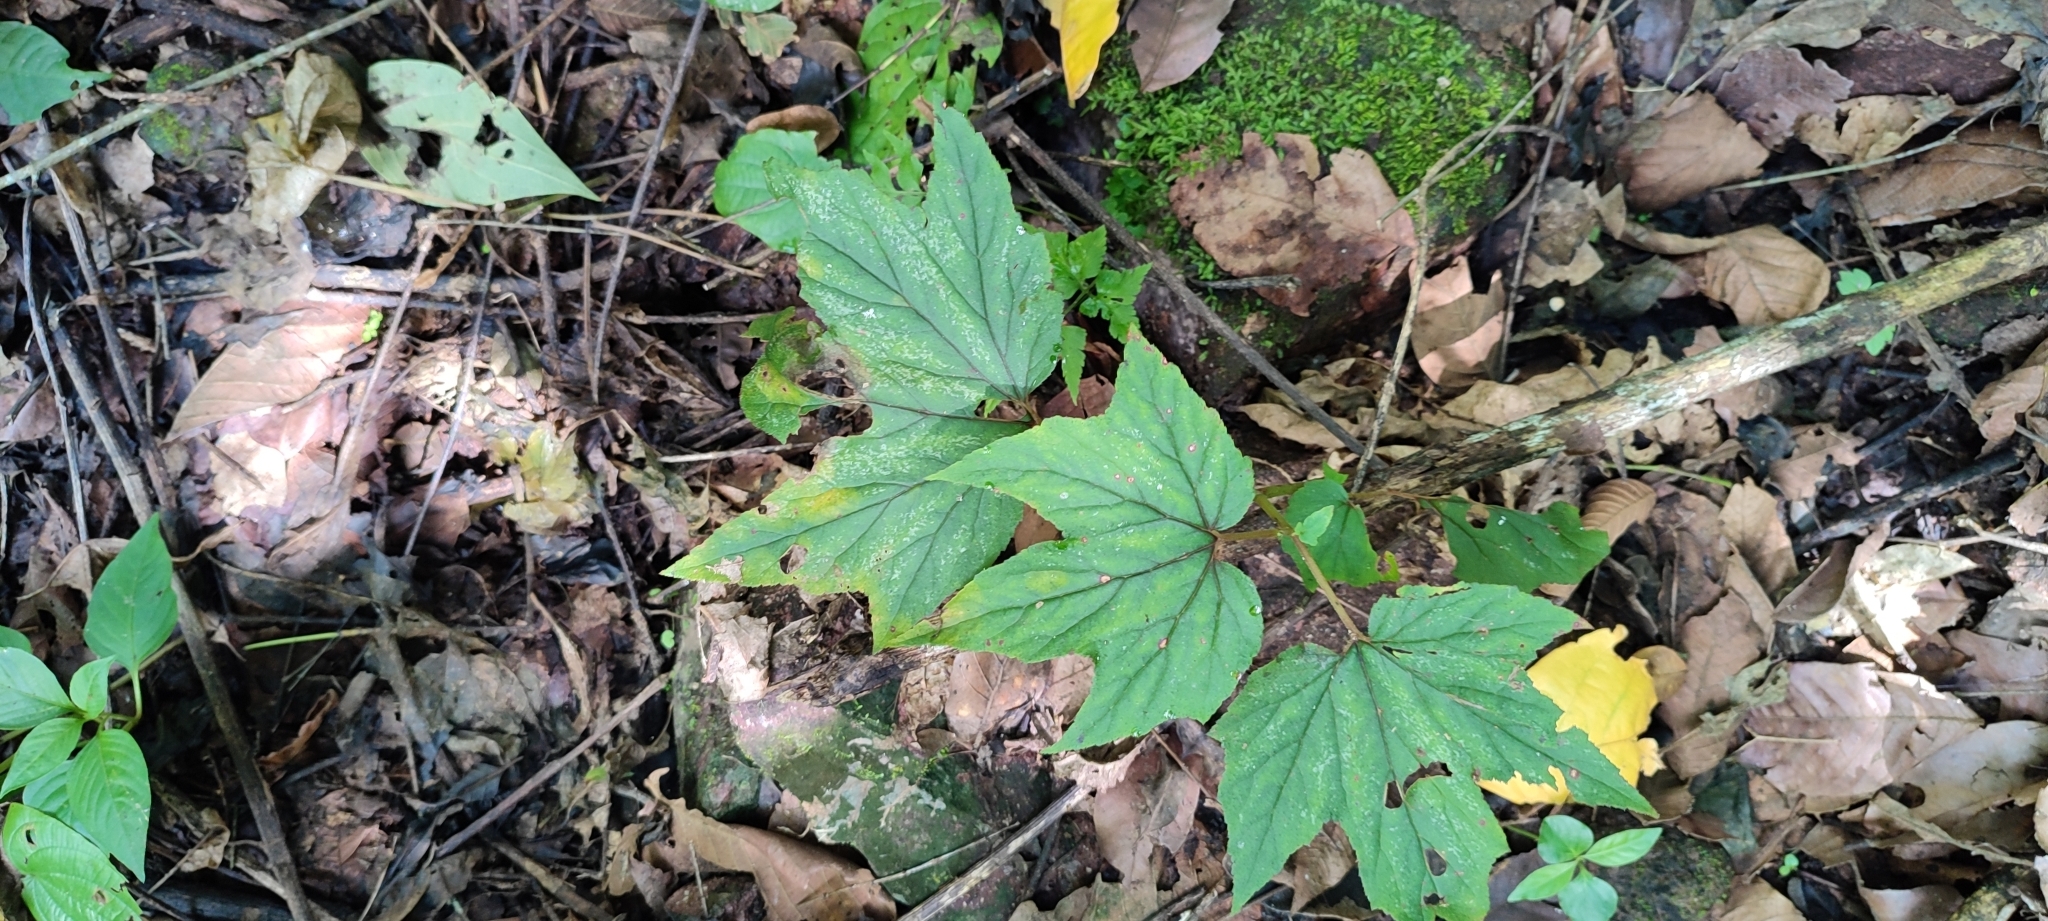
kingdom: Plantae
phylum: Tracheophyta
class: Magnoliopsida
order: Cucurbitales
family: Begoniaceae
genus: Begonia
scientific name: Begonia biserrata
